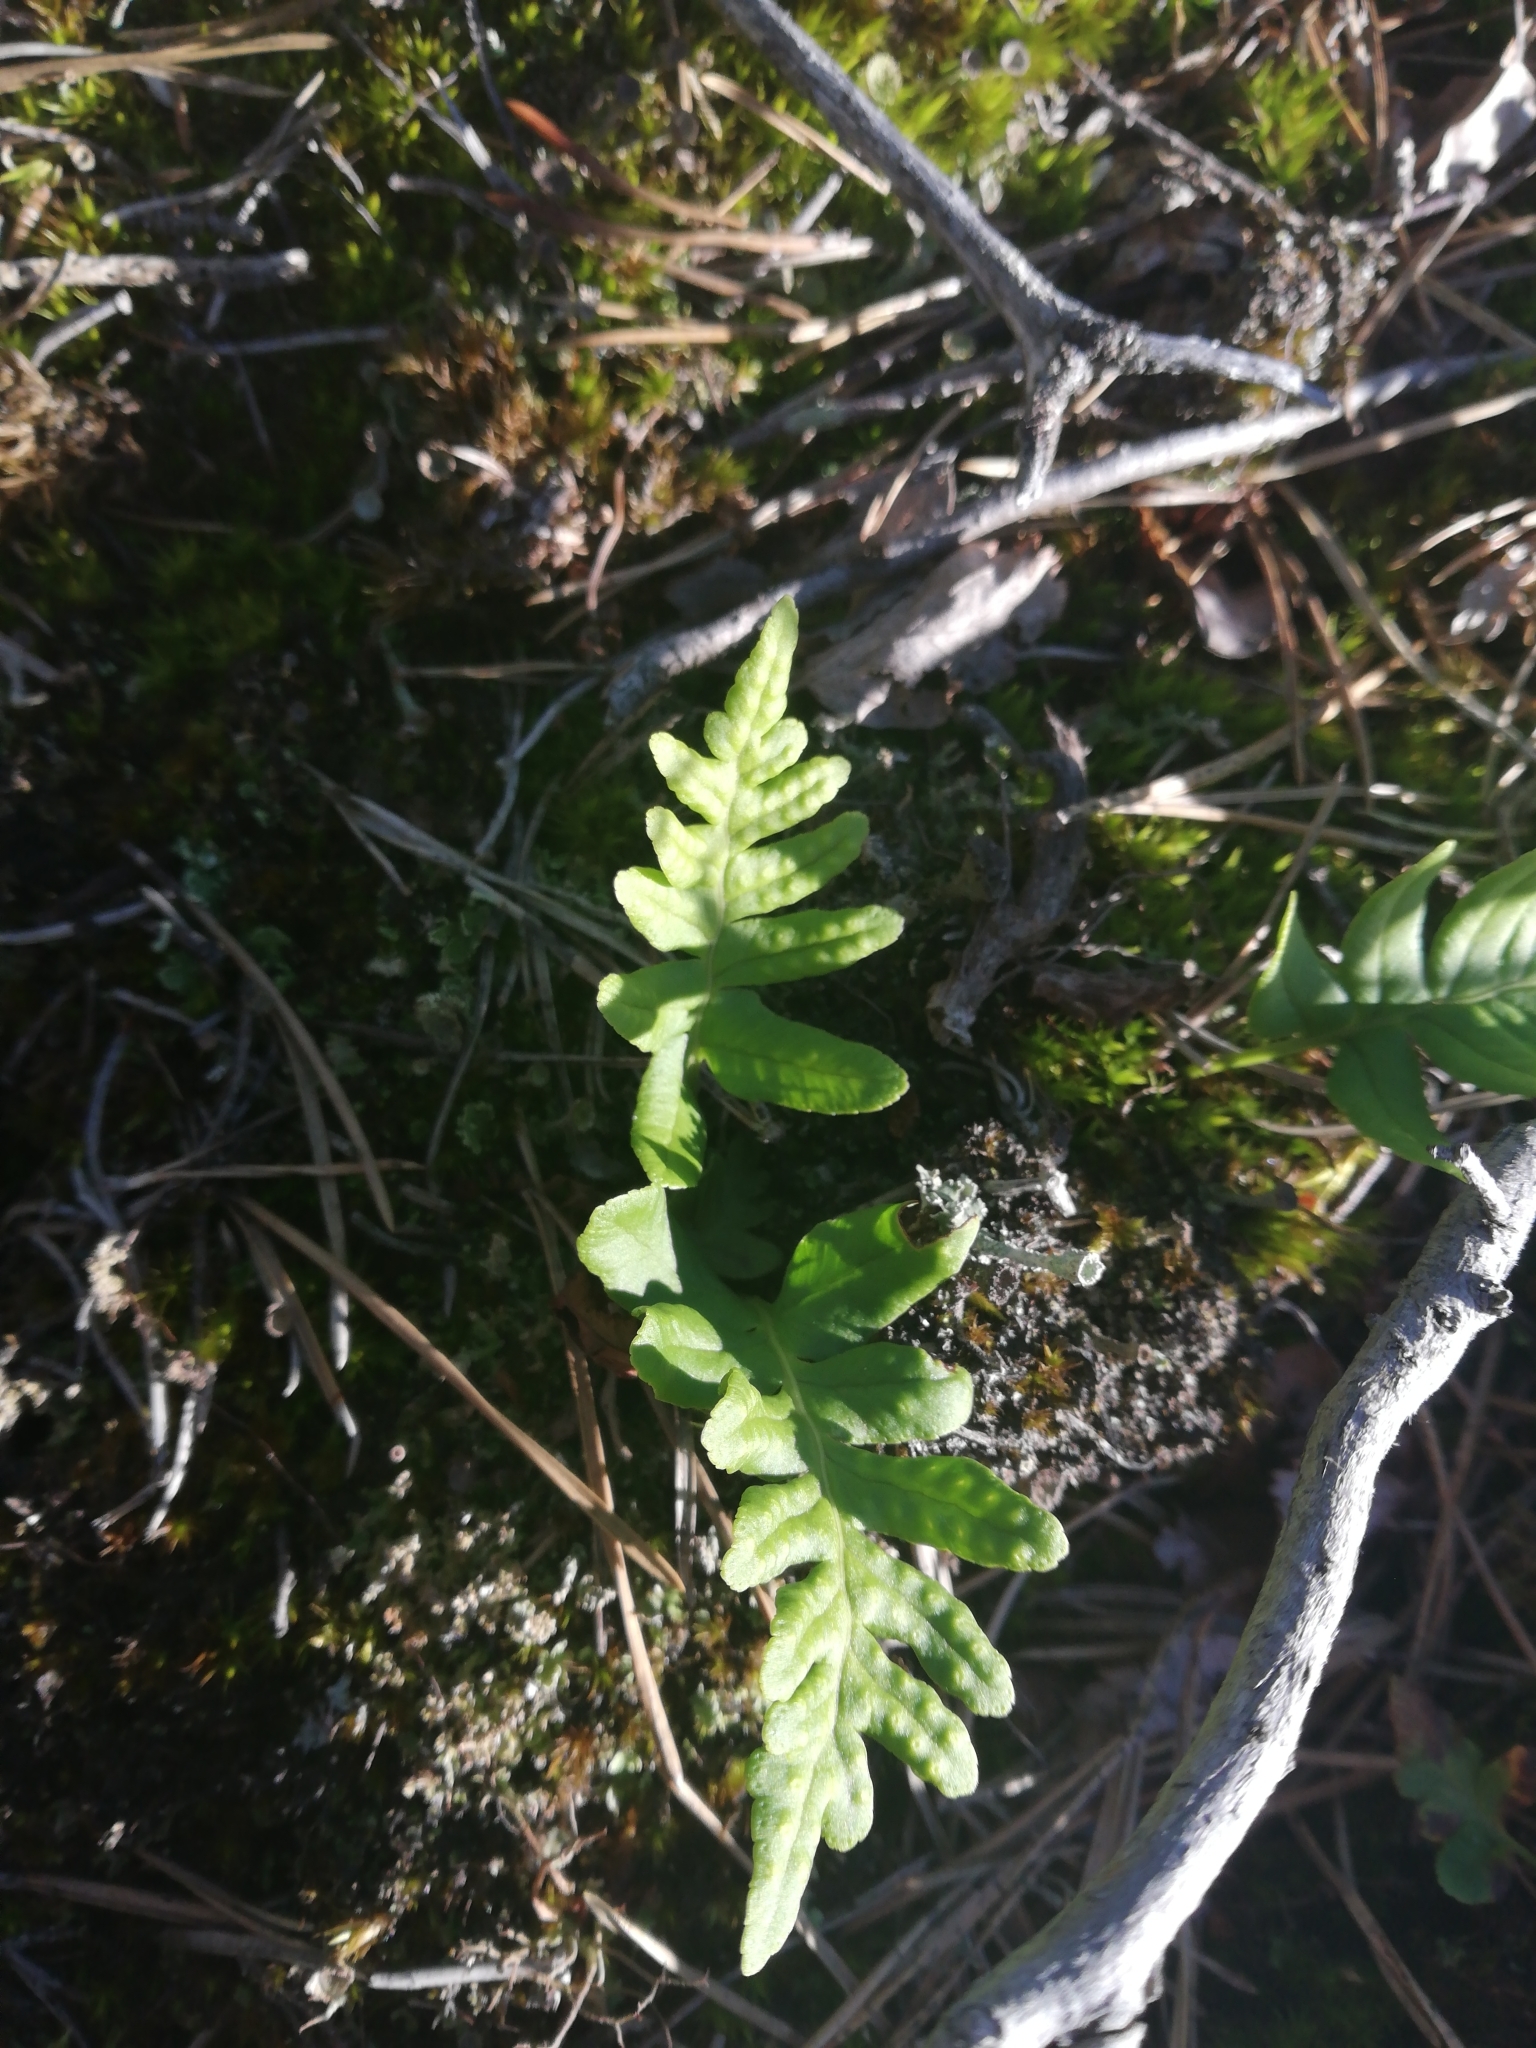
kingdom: Plantae
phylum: Tracheophyta
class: Polypodiopsida
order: Polypodiales
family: Polypodiaceae
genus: Polypodium
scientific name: Polypodium vulgare
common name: Common polypody
